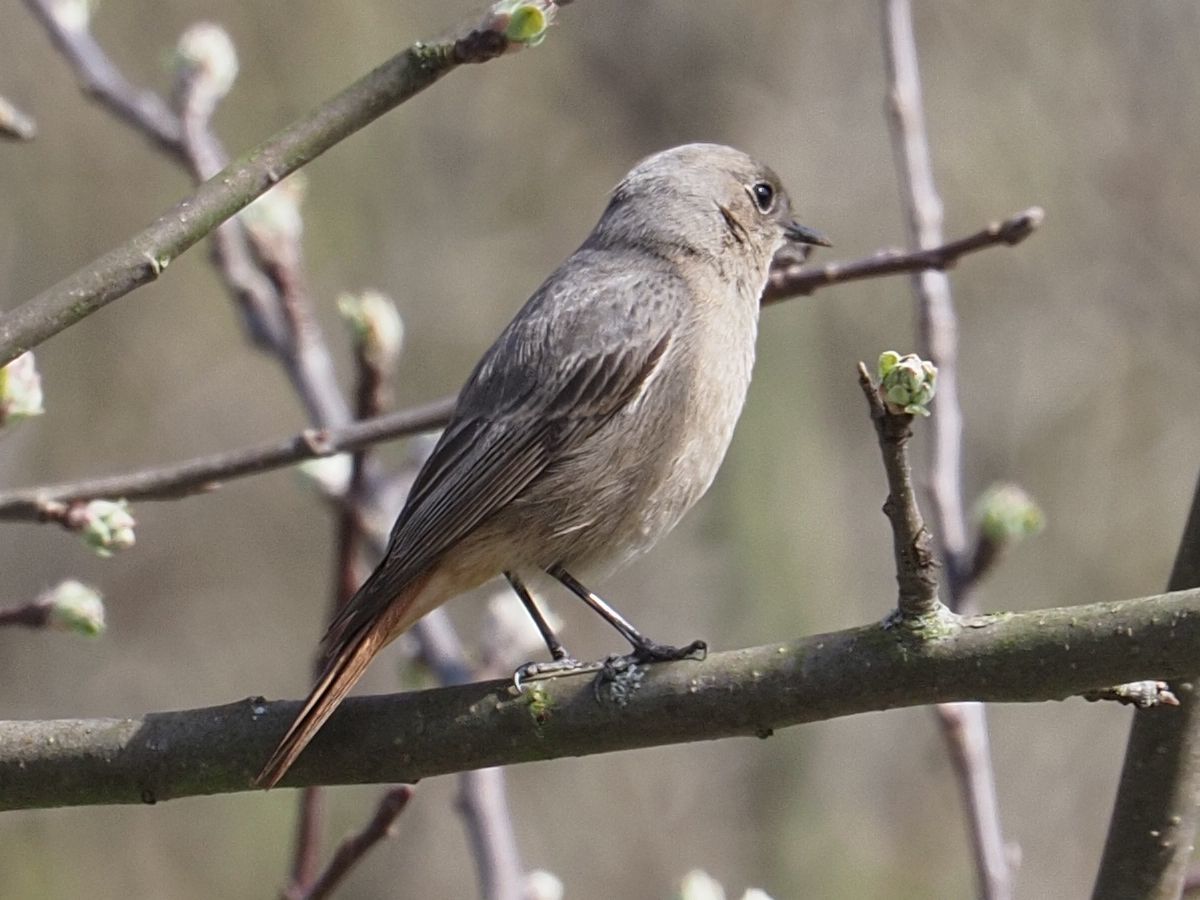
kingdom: Animalia
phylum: Chordata
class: Aves
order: Passeriformes
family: Muscicapidae
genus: Phoenicurus
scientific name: Phoenicurus ochruros
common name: Black redstart
